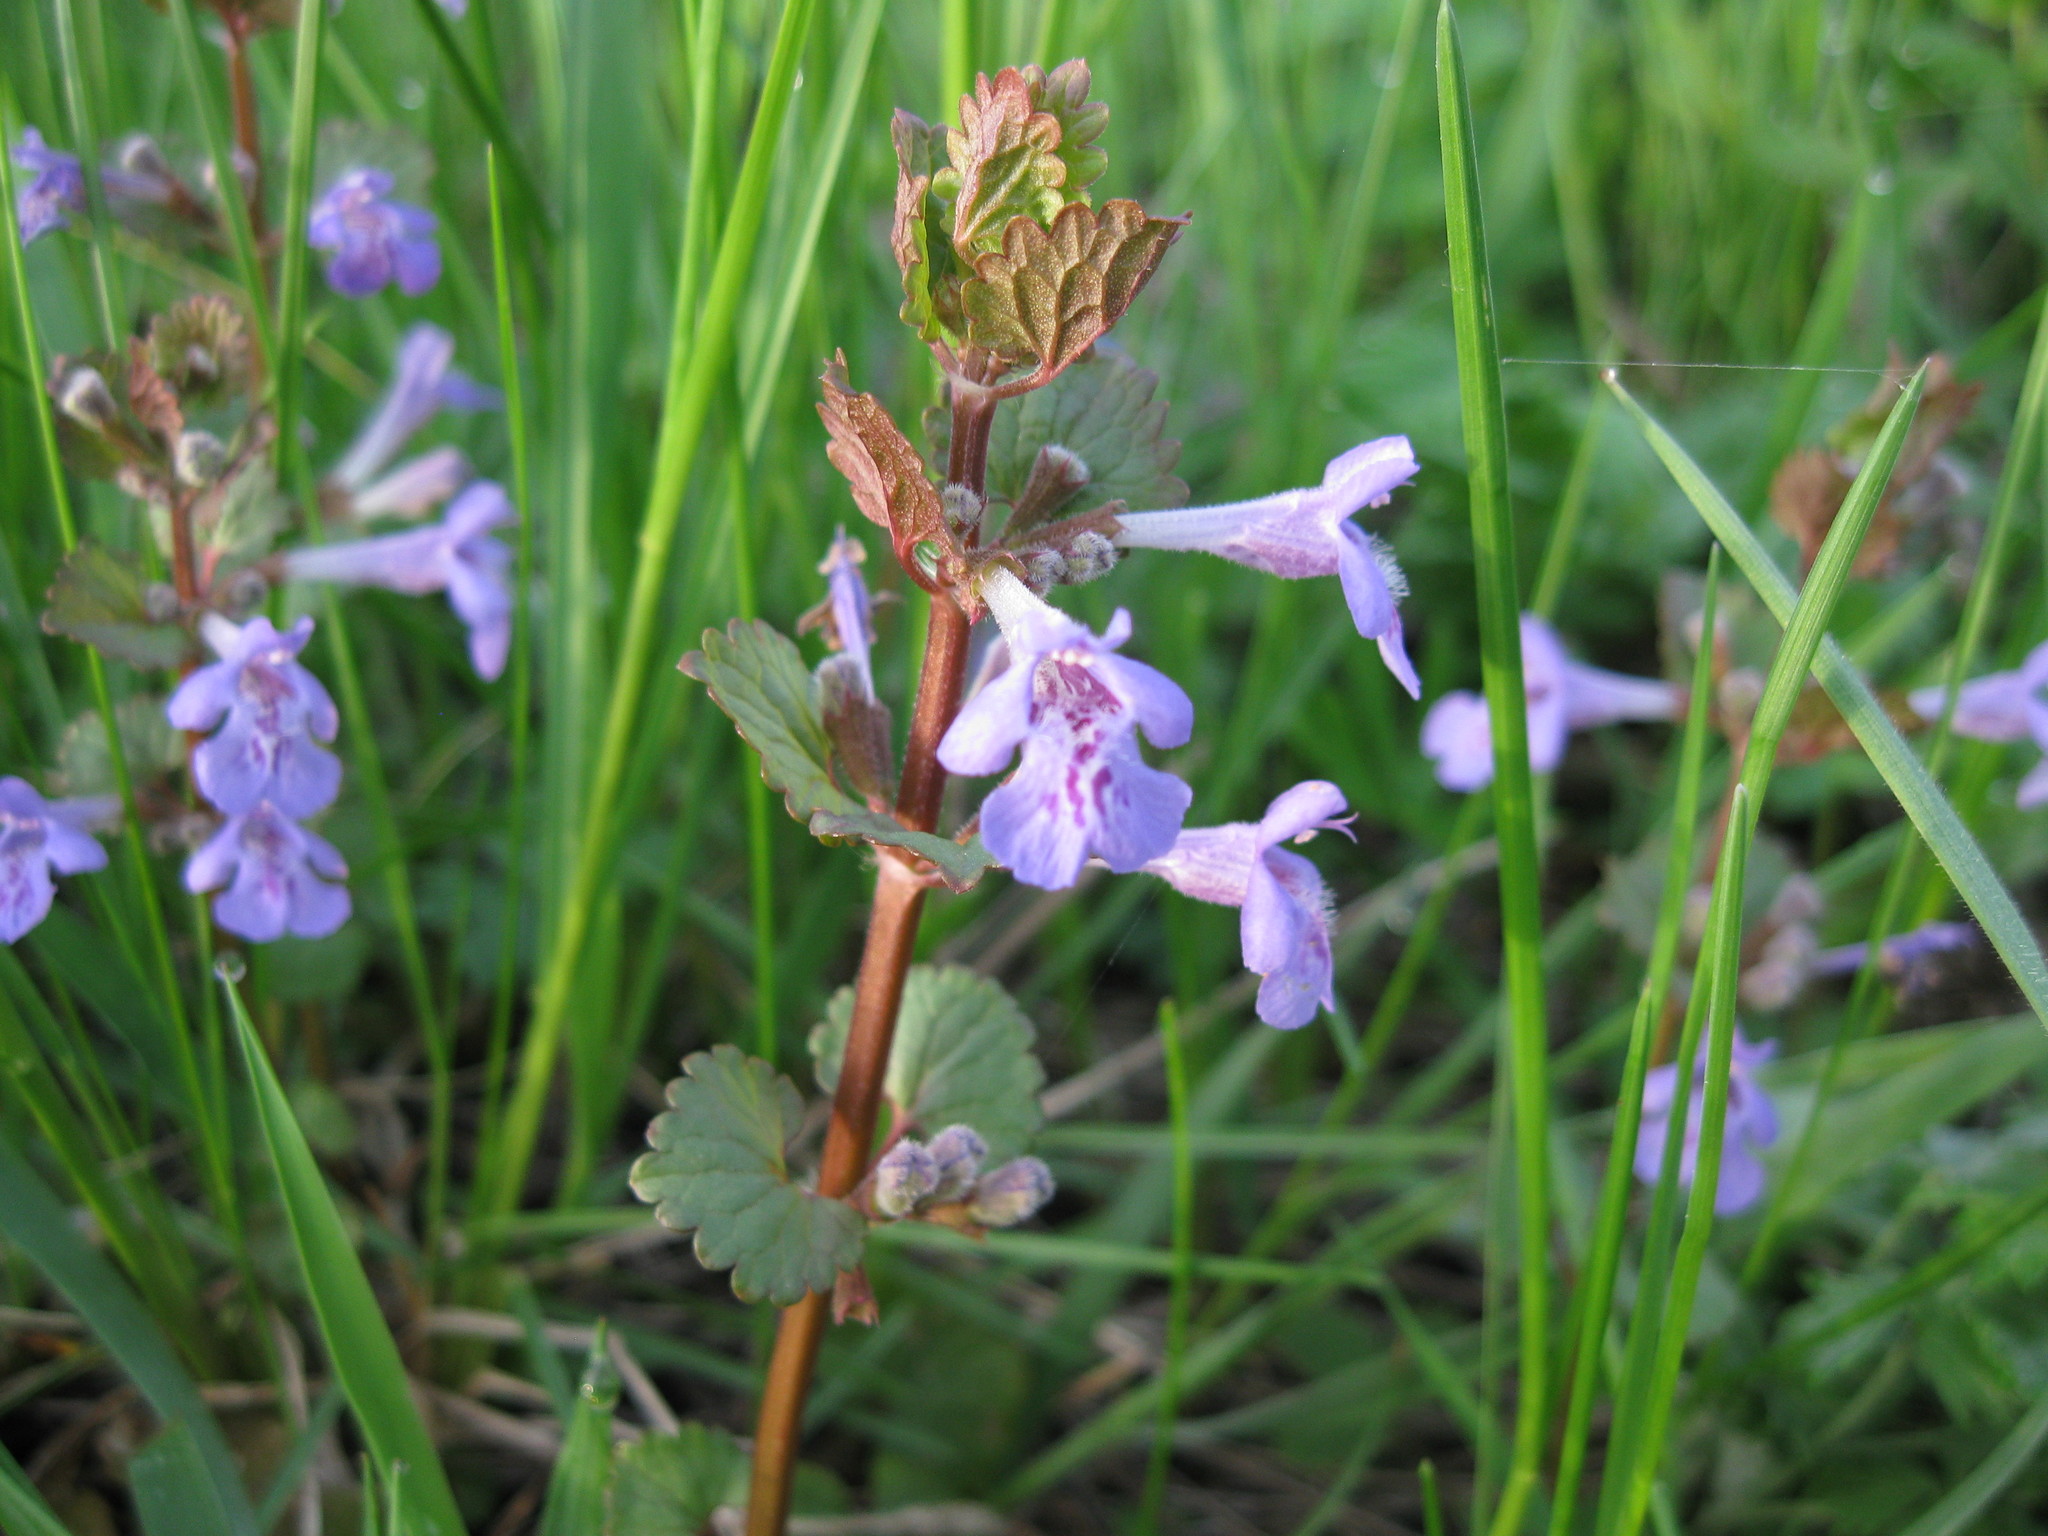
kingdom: Plantae
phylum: Tracheophyta
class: Magnoliopsida
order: Lamiales
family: Lamiaceae
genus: Glechoma
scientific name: Glechoma hederacea
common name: Ground ivy
